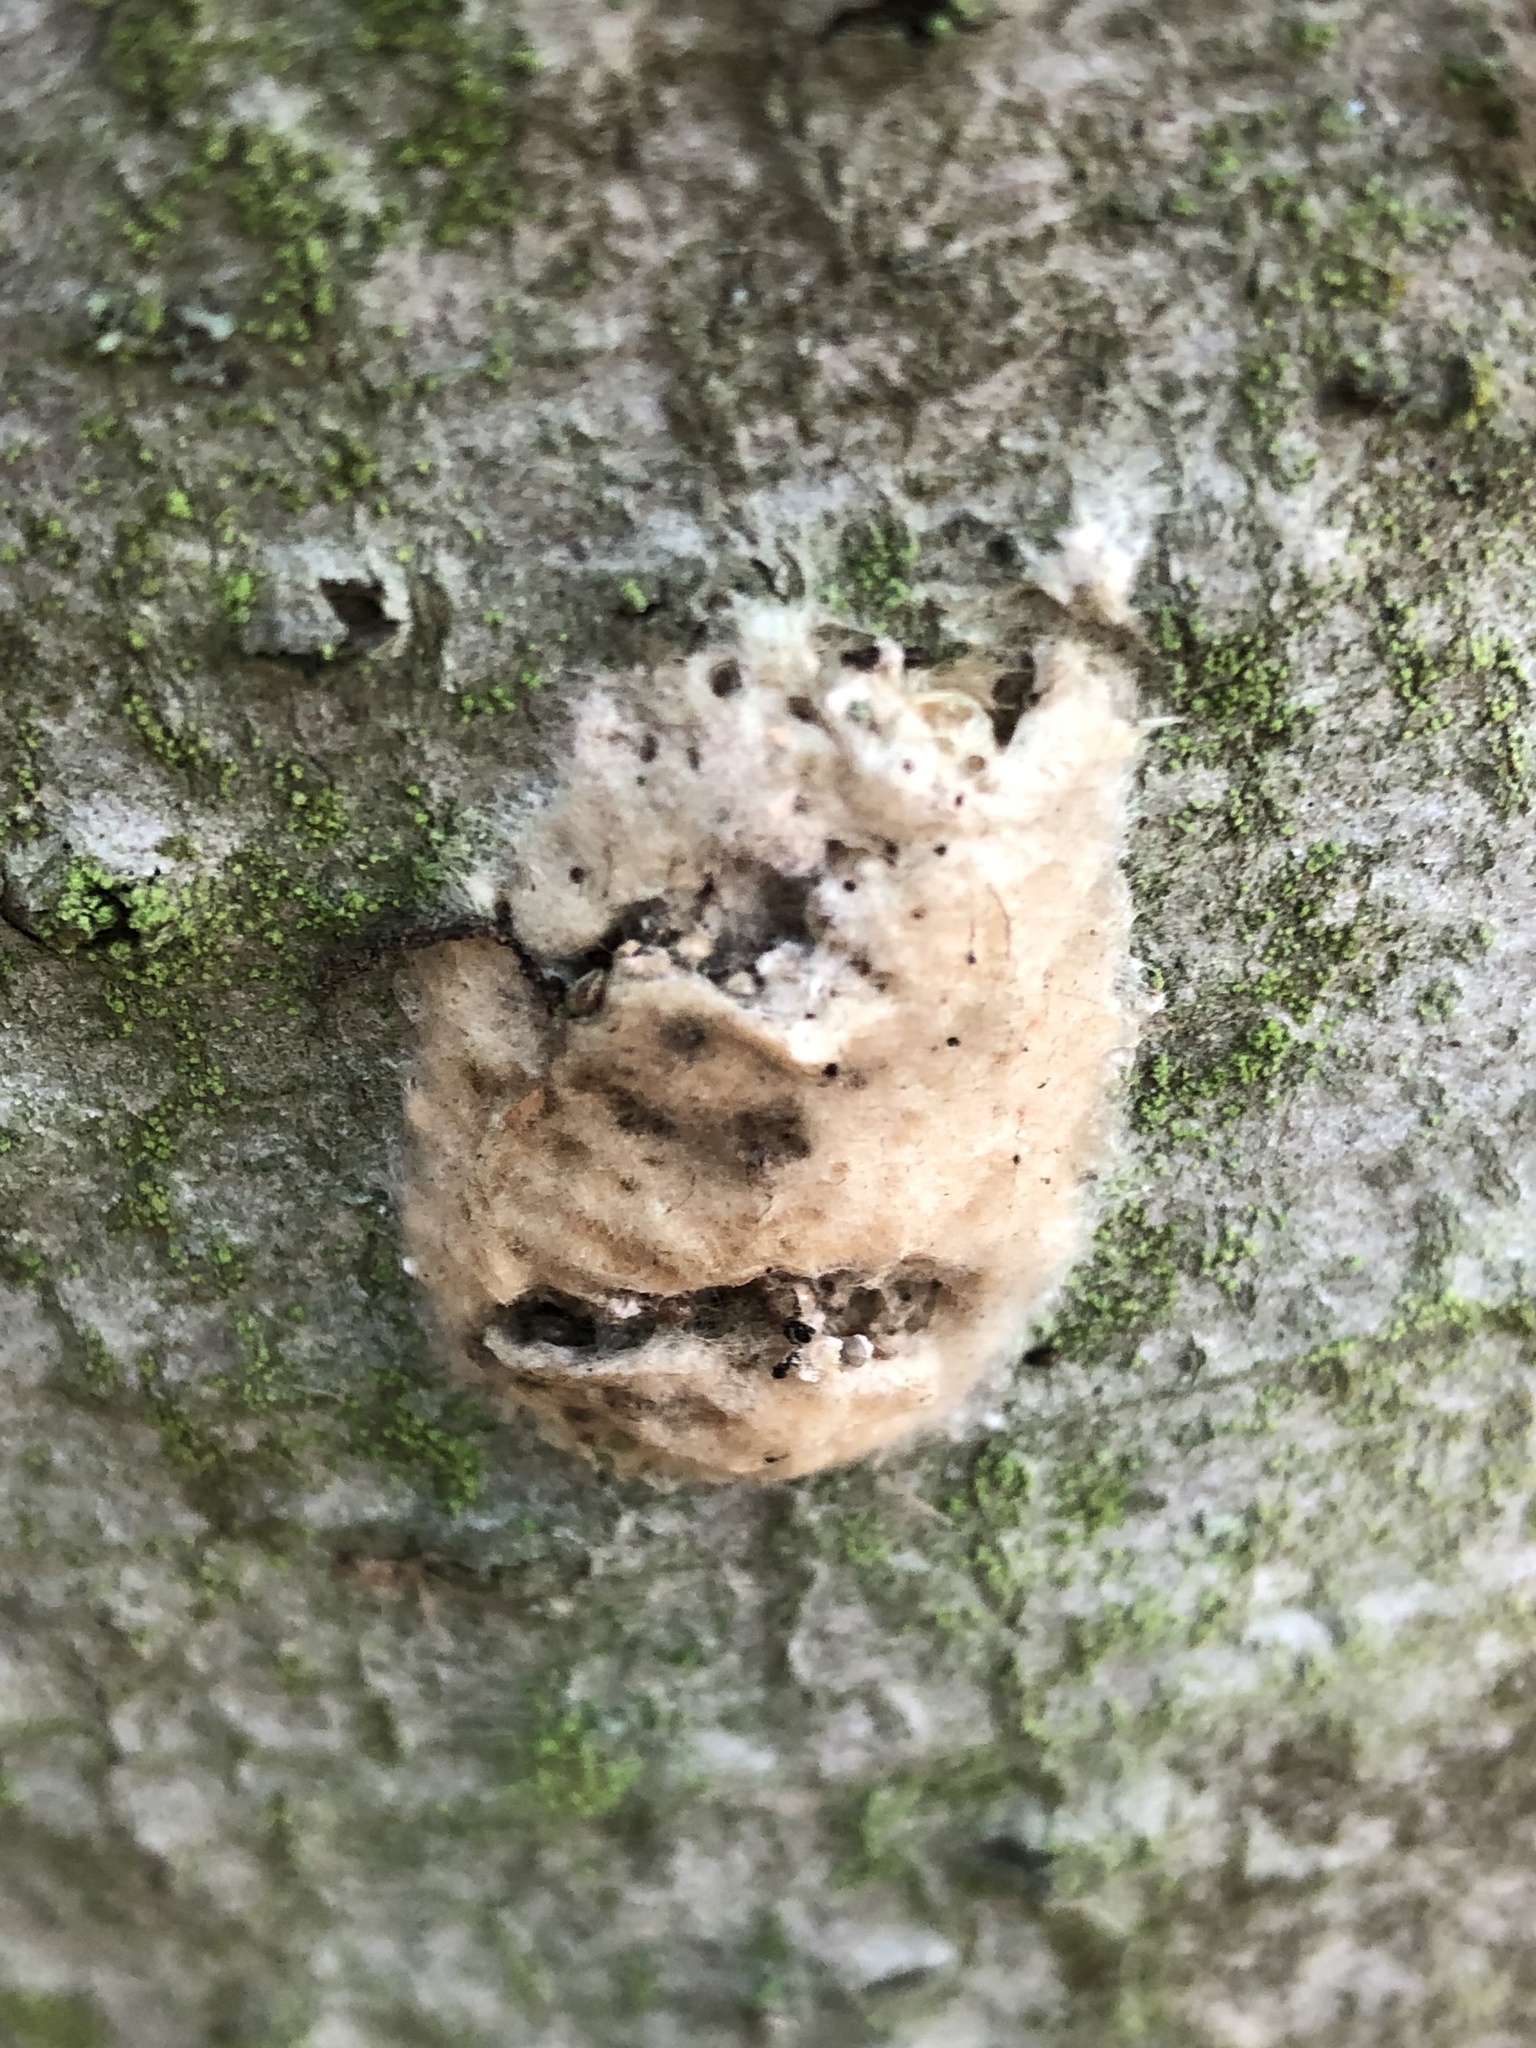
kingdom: Animalia
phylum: Arthropoda
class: Insecta
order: Lepidoptera
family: Erebidae
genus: Lymantria
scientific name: Lymantria dispar
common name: Gypsy moth
